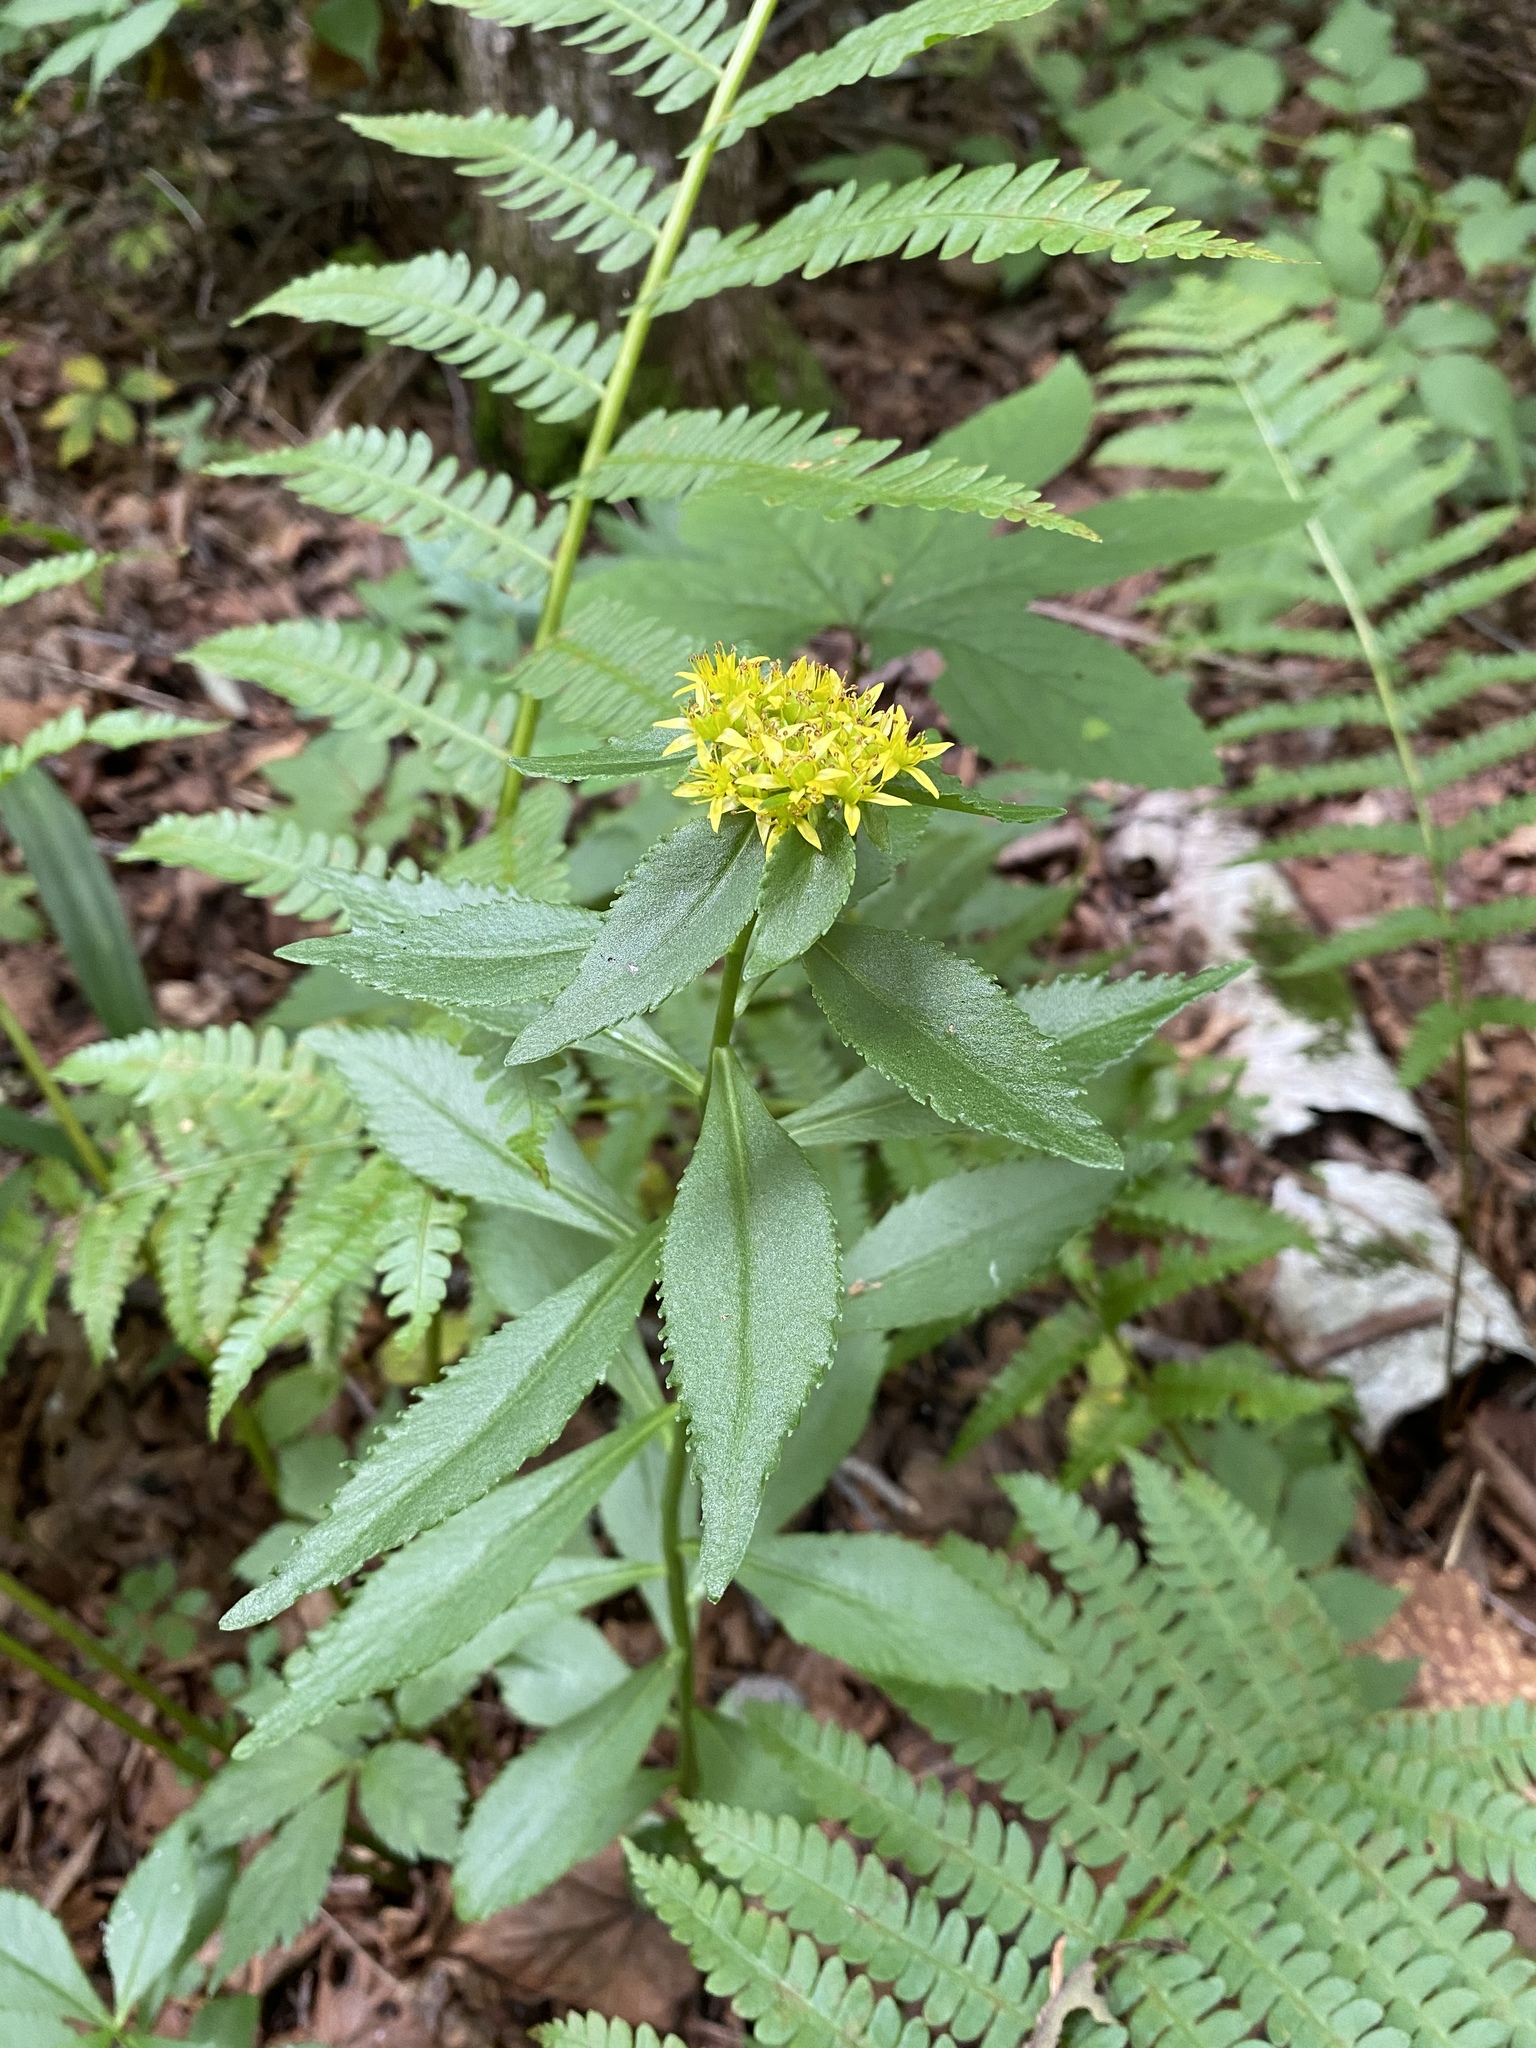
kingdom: Plantae
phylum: Tracheophyta
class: Magnoliopsida
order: Saxifragales
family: Crassulaceae
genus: Phedimus
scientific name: Phedimus aizoon
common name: Orpin aizoon
